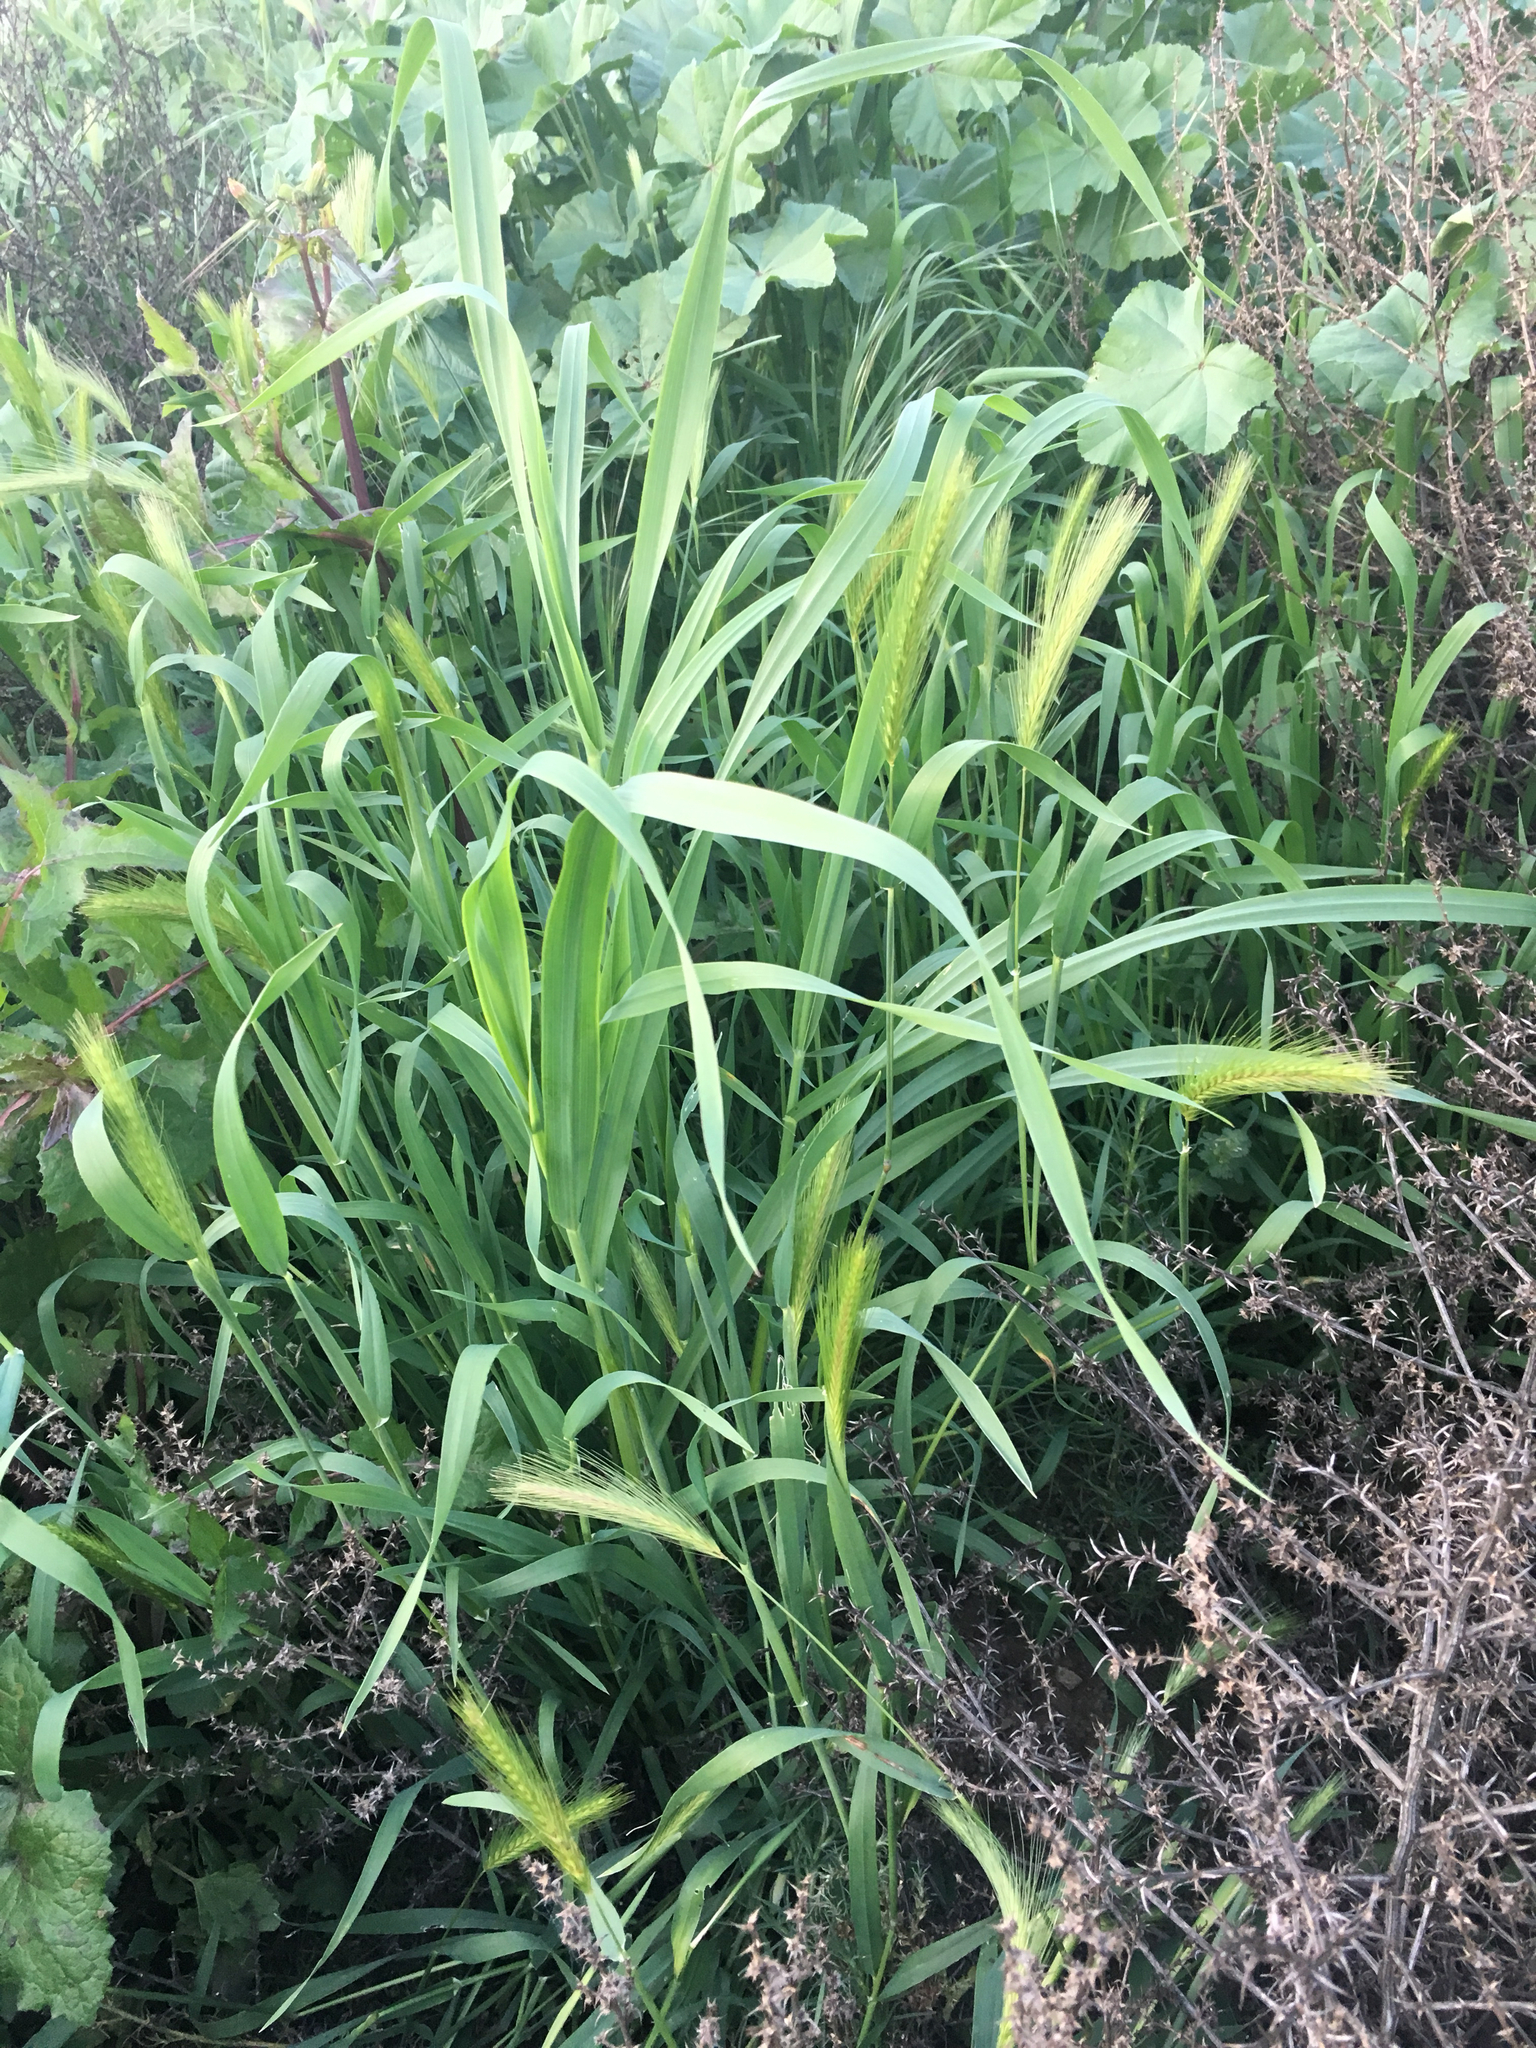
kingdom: Plantae
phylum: Tracheophyta
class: Liliopsida
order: Poales
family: Poaceae
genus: Hordeum
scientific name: Hordeum murinum
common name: Wall barley
